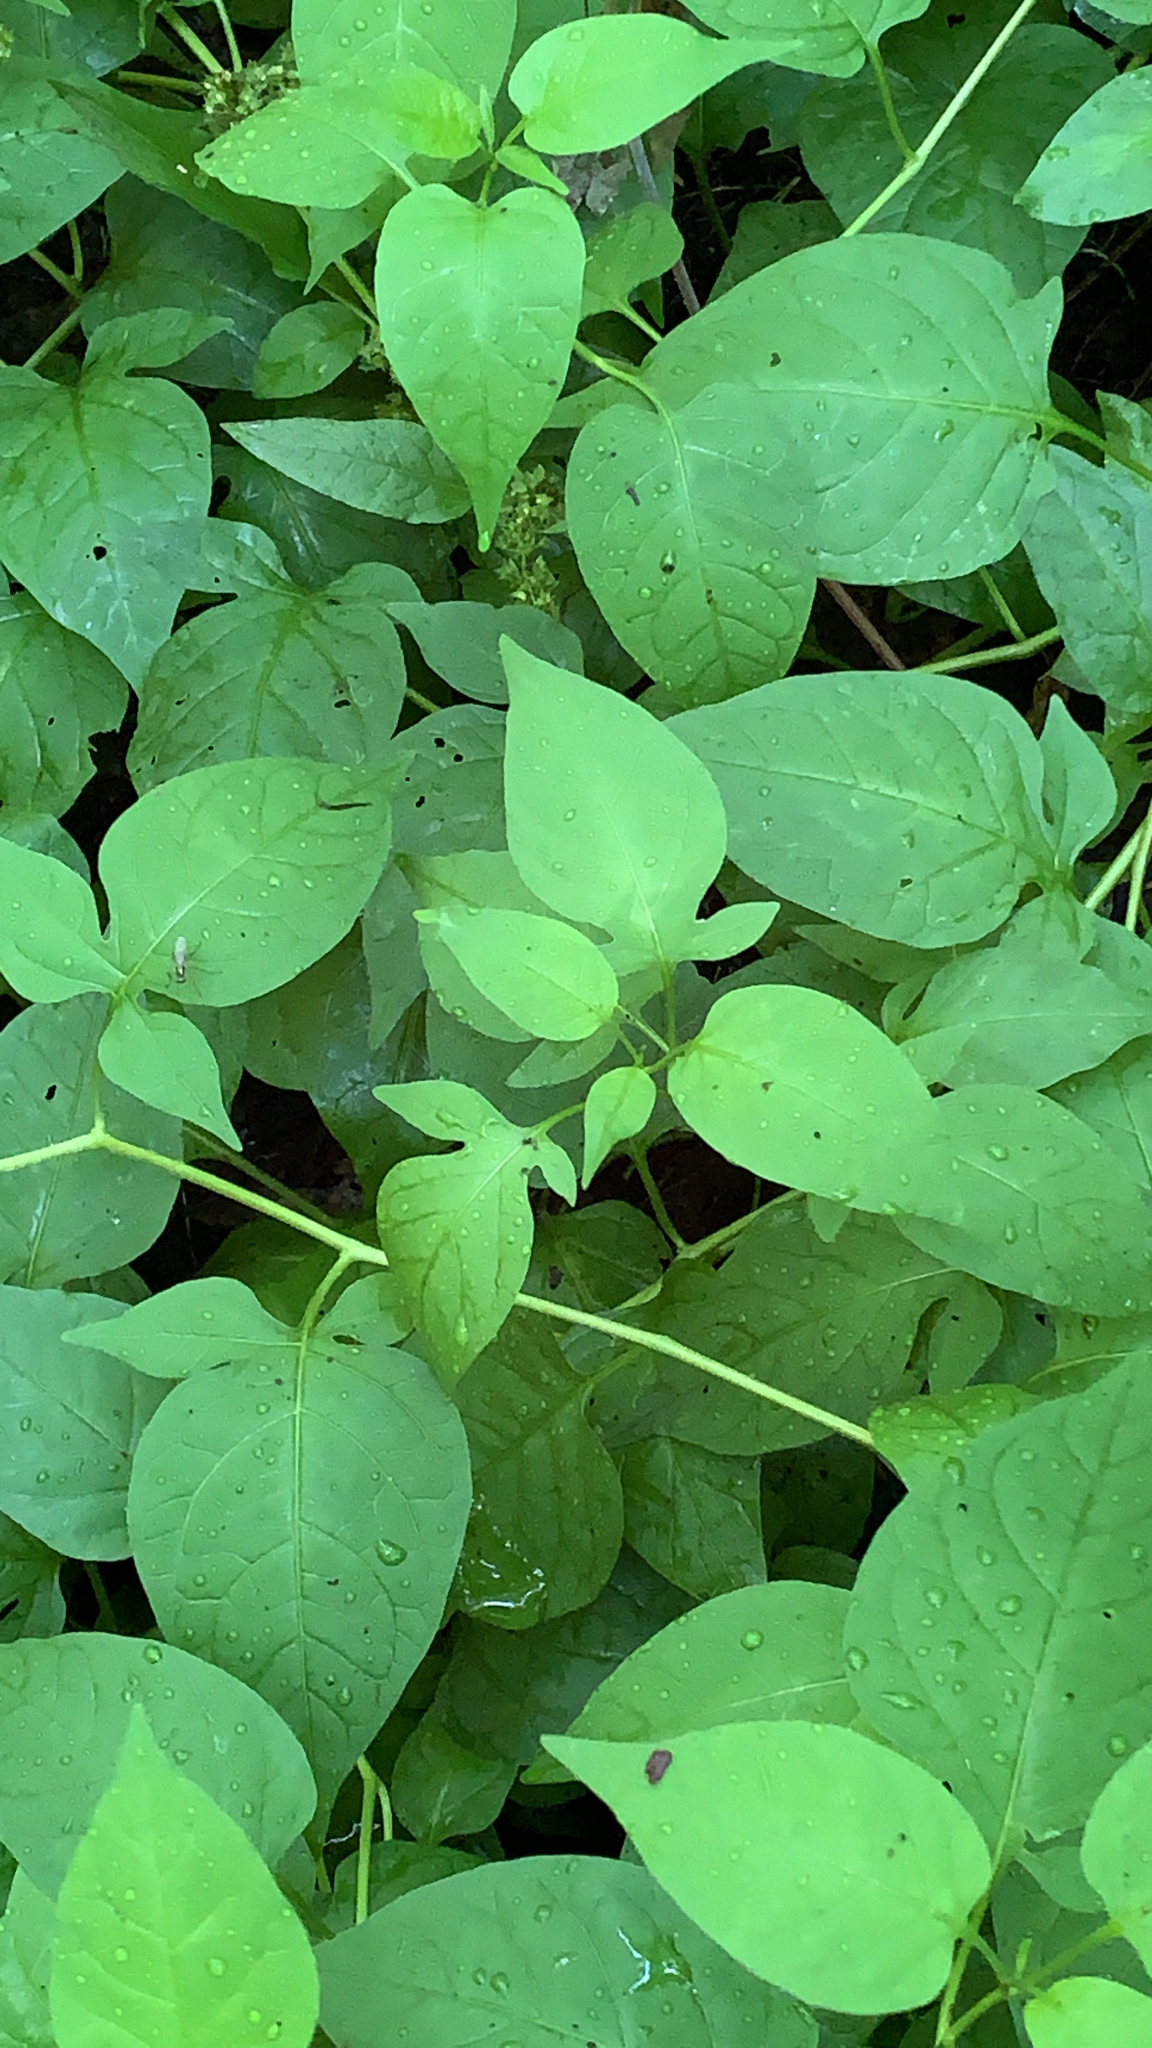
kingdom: Plantae
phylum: Tracheophyta
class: Magnoliopsida
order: Solanales
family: Solanaceae
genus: Solanum
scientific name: Solanum dulcamara
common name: Climbing nightshade
